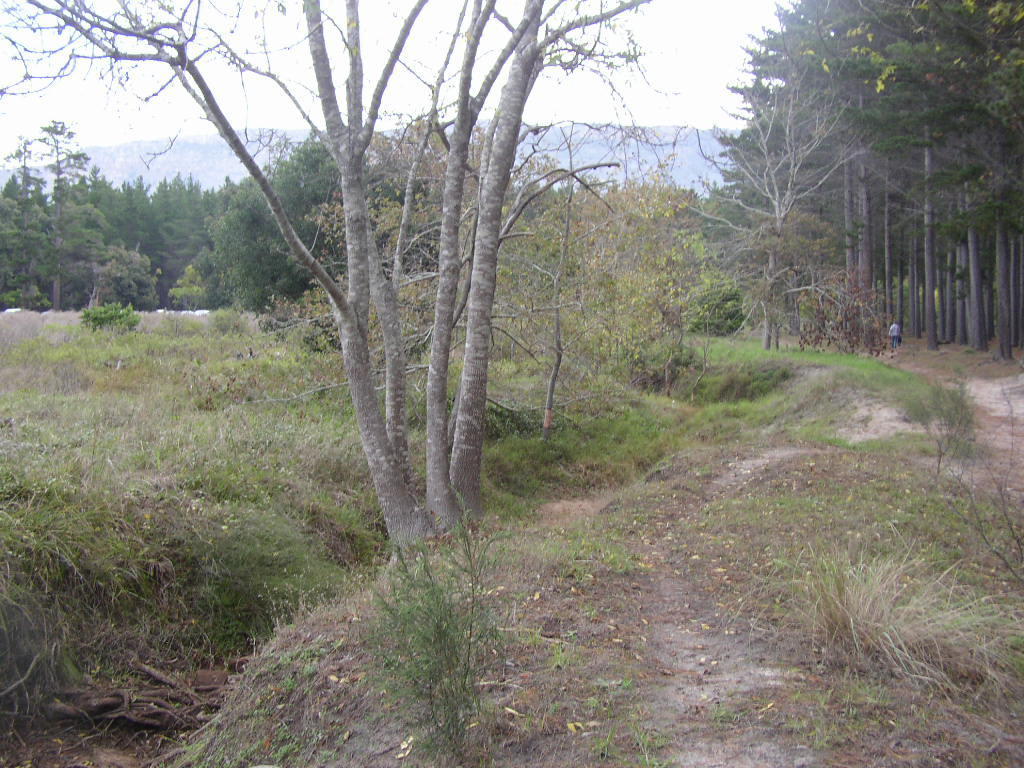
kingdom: Plantae
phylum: Tracheophyta
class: Magnoliopsida
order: Lamiales
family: Oleaceae
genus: Fraxinus
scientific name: Fraxinus americana
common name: White ash
